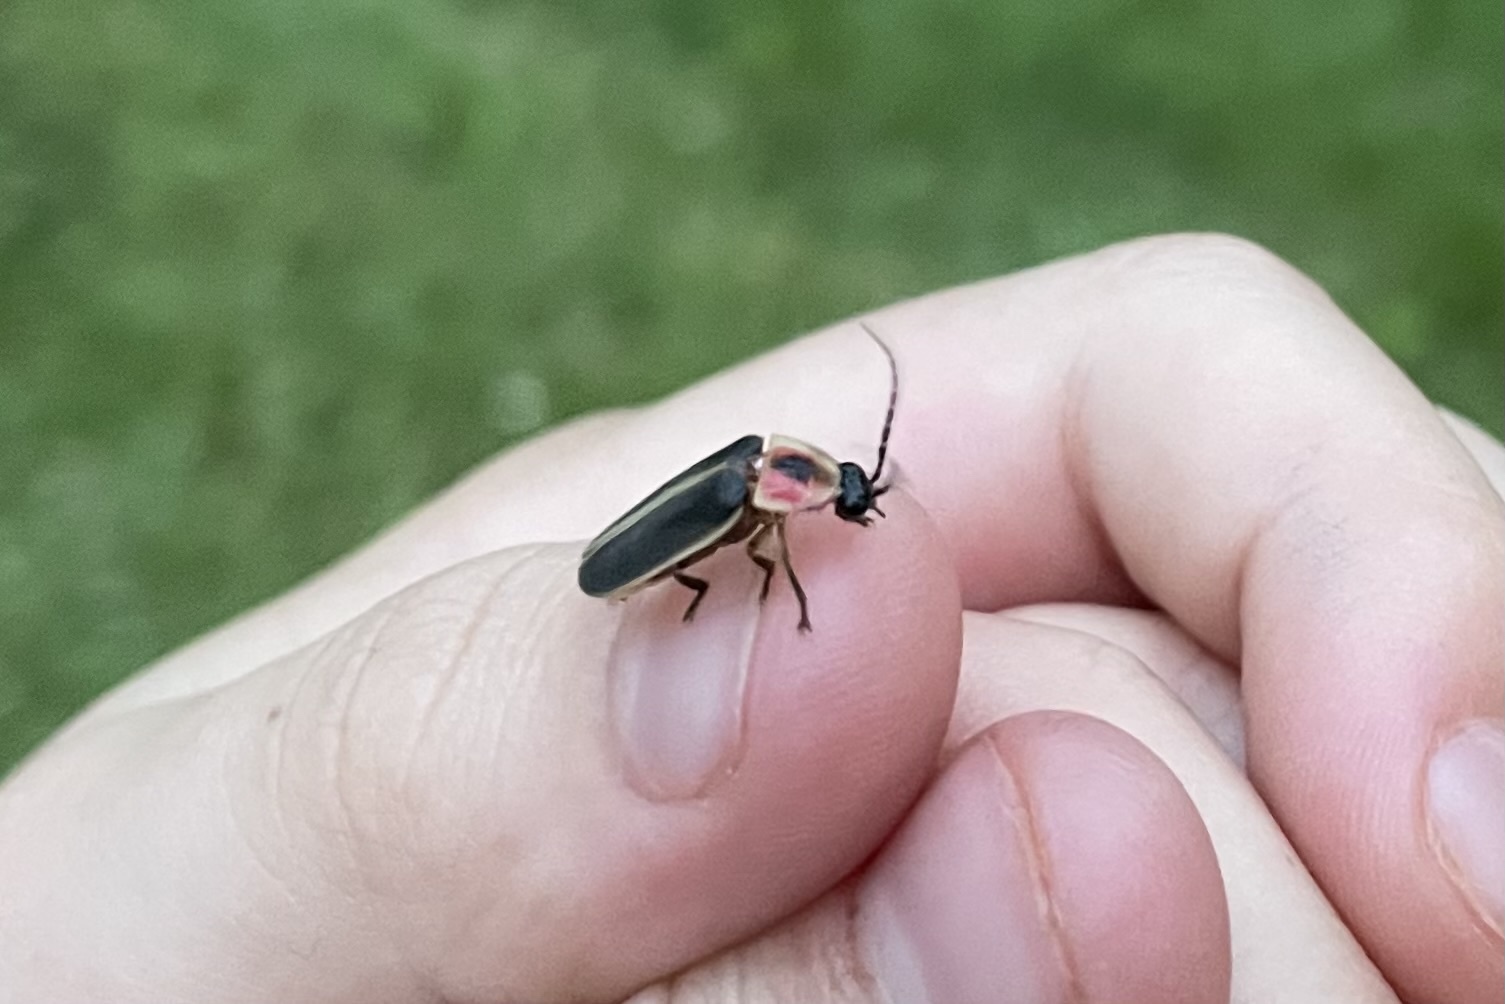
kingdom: Animalia
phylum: Arthropoda
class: Insecta
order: Coleoptera
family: Lampyridae
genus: Photinus
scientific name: Photinus pyralis
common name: Big dipper firefly
